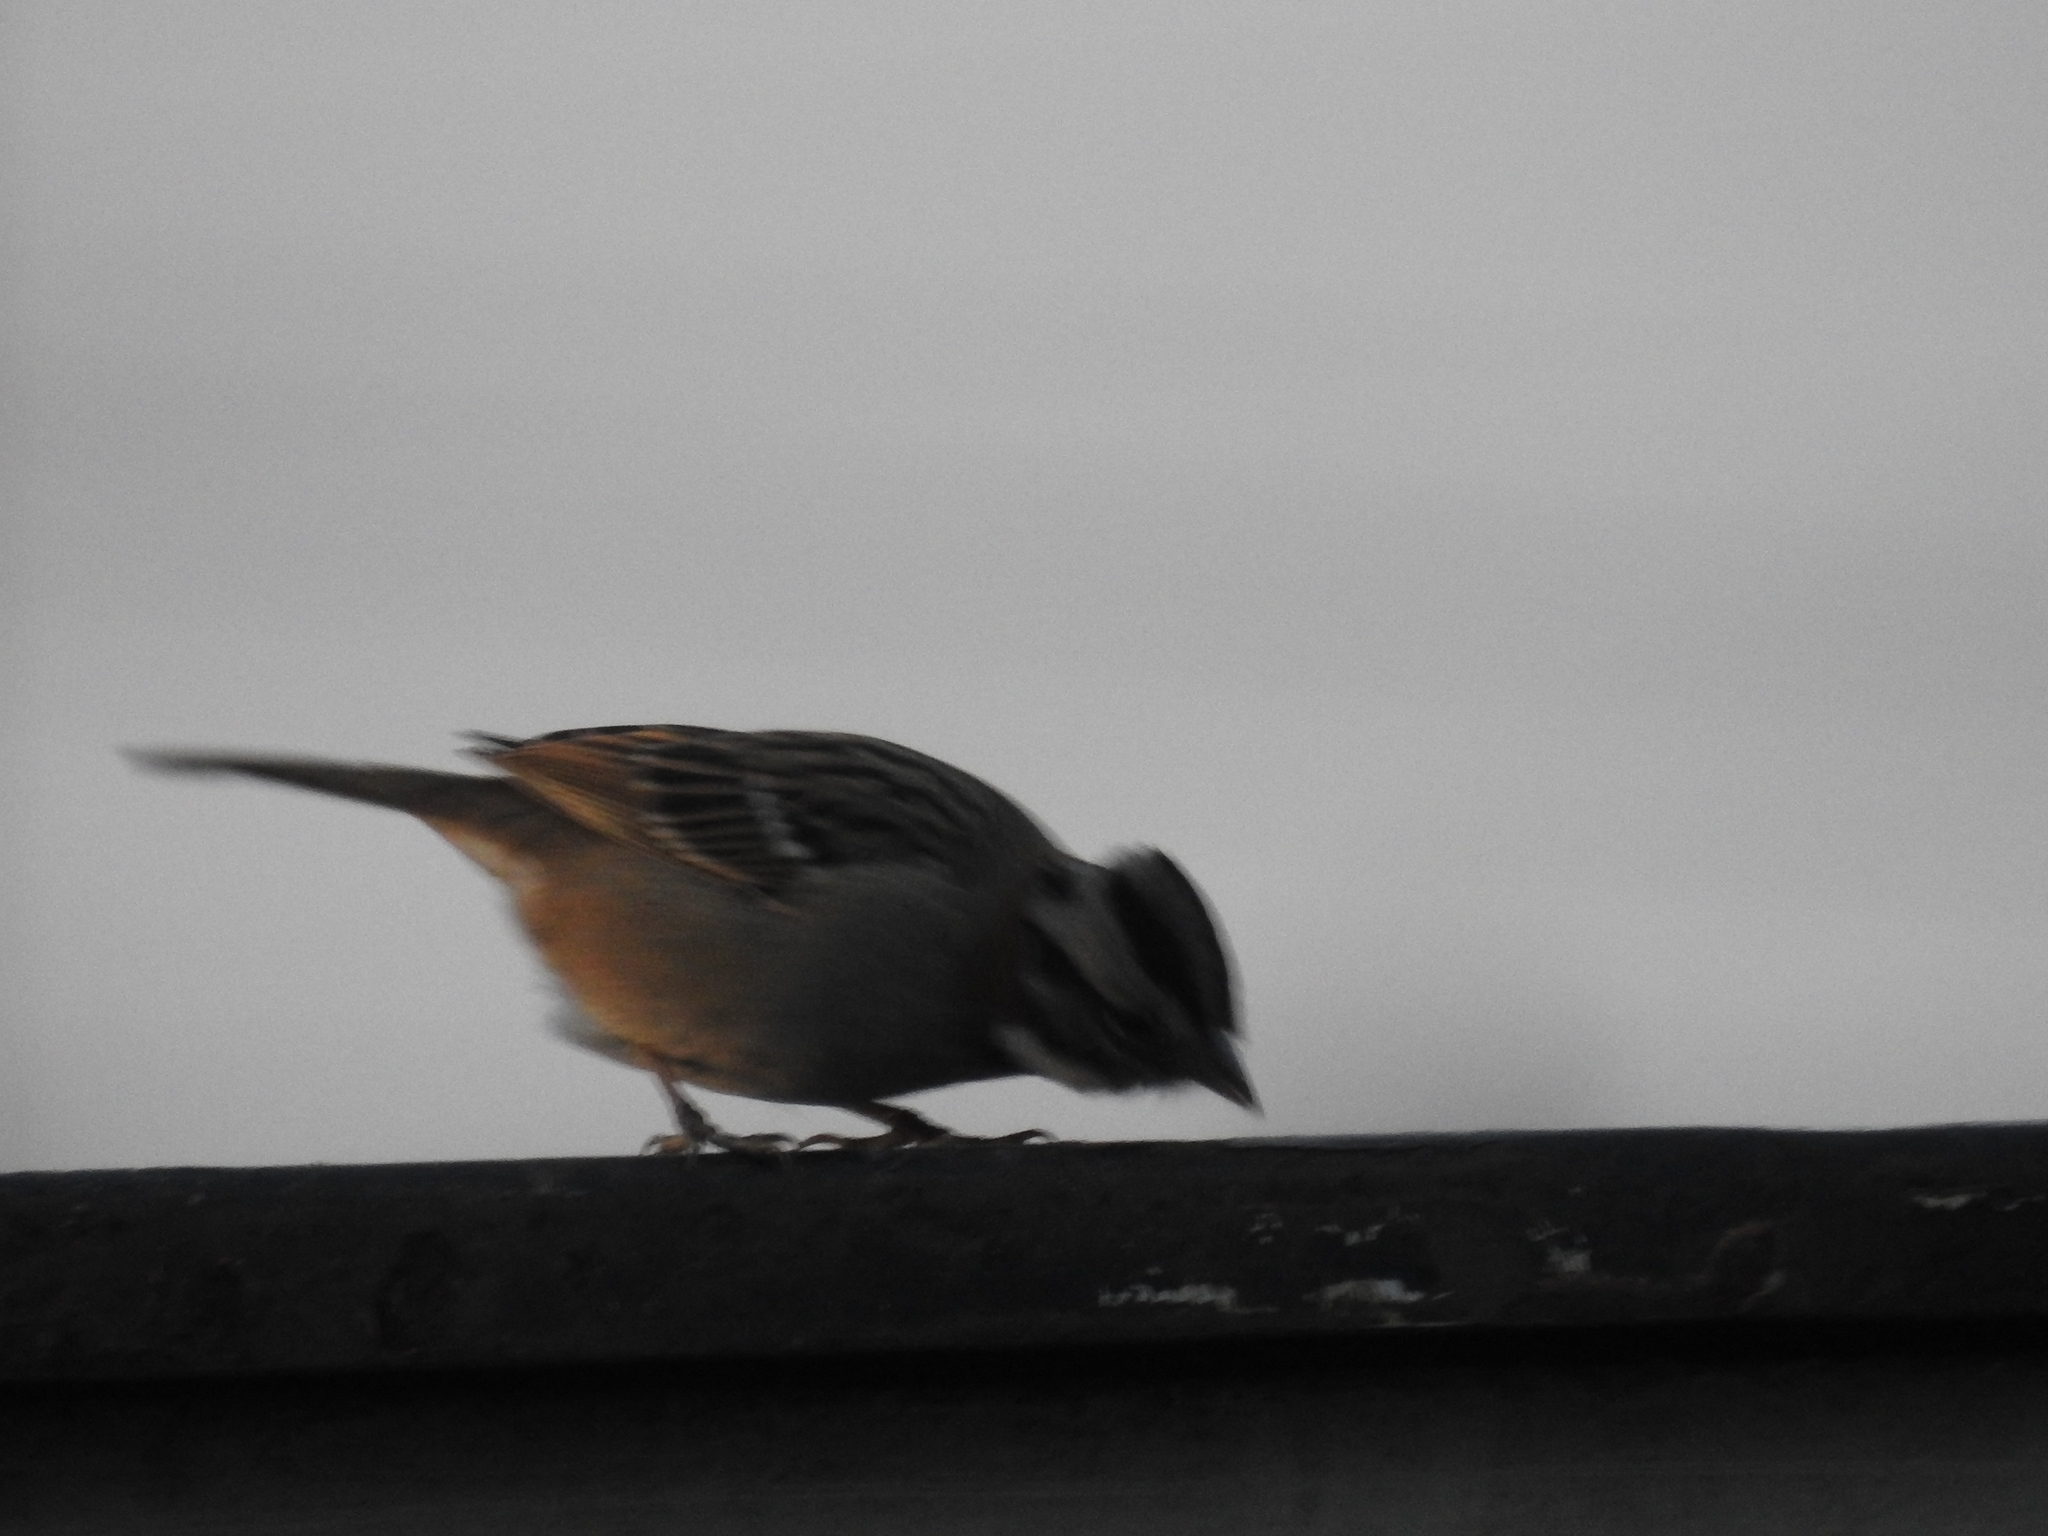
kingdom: Animalia
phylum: Chordata
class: Aves
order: Passeriformes
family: Passerellidae
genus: Zonotrichia
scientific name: Zonotrichia capensis
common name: Rufous-collared sparrow
